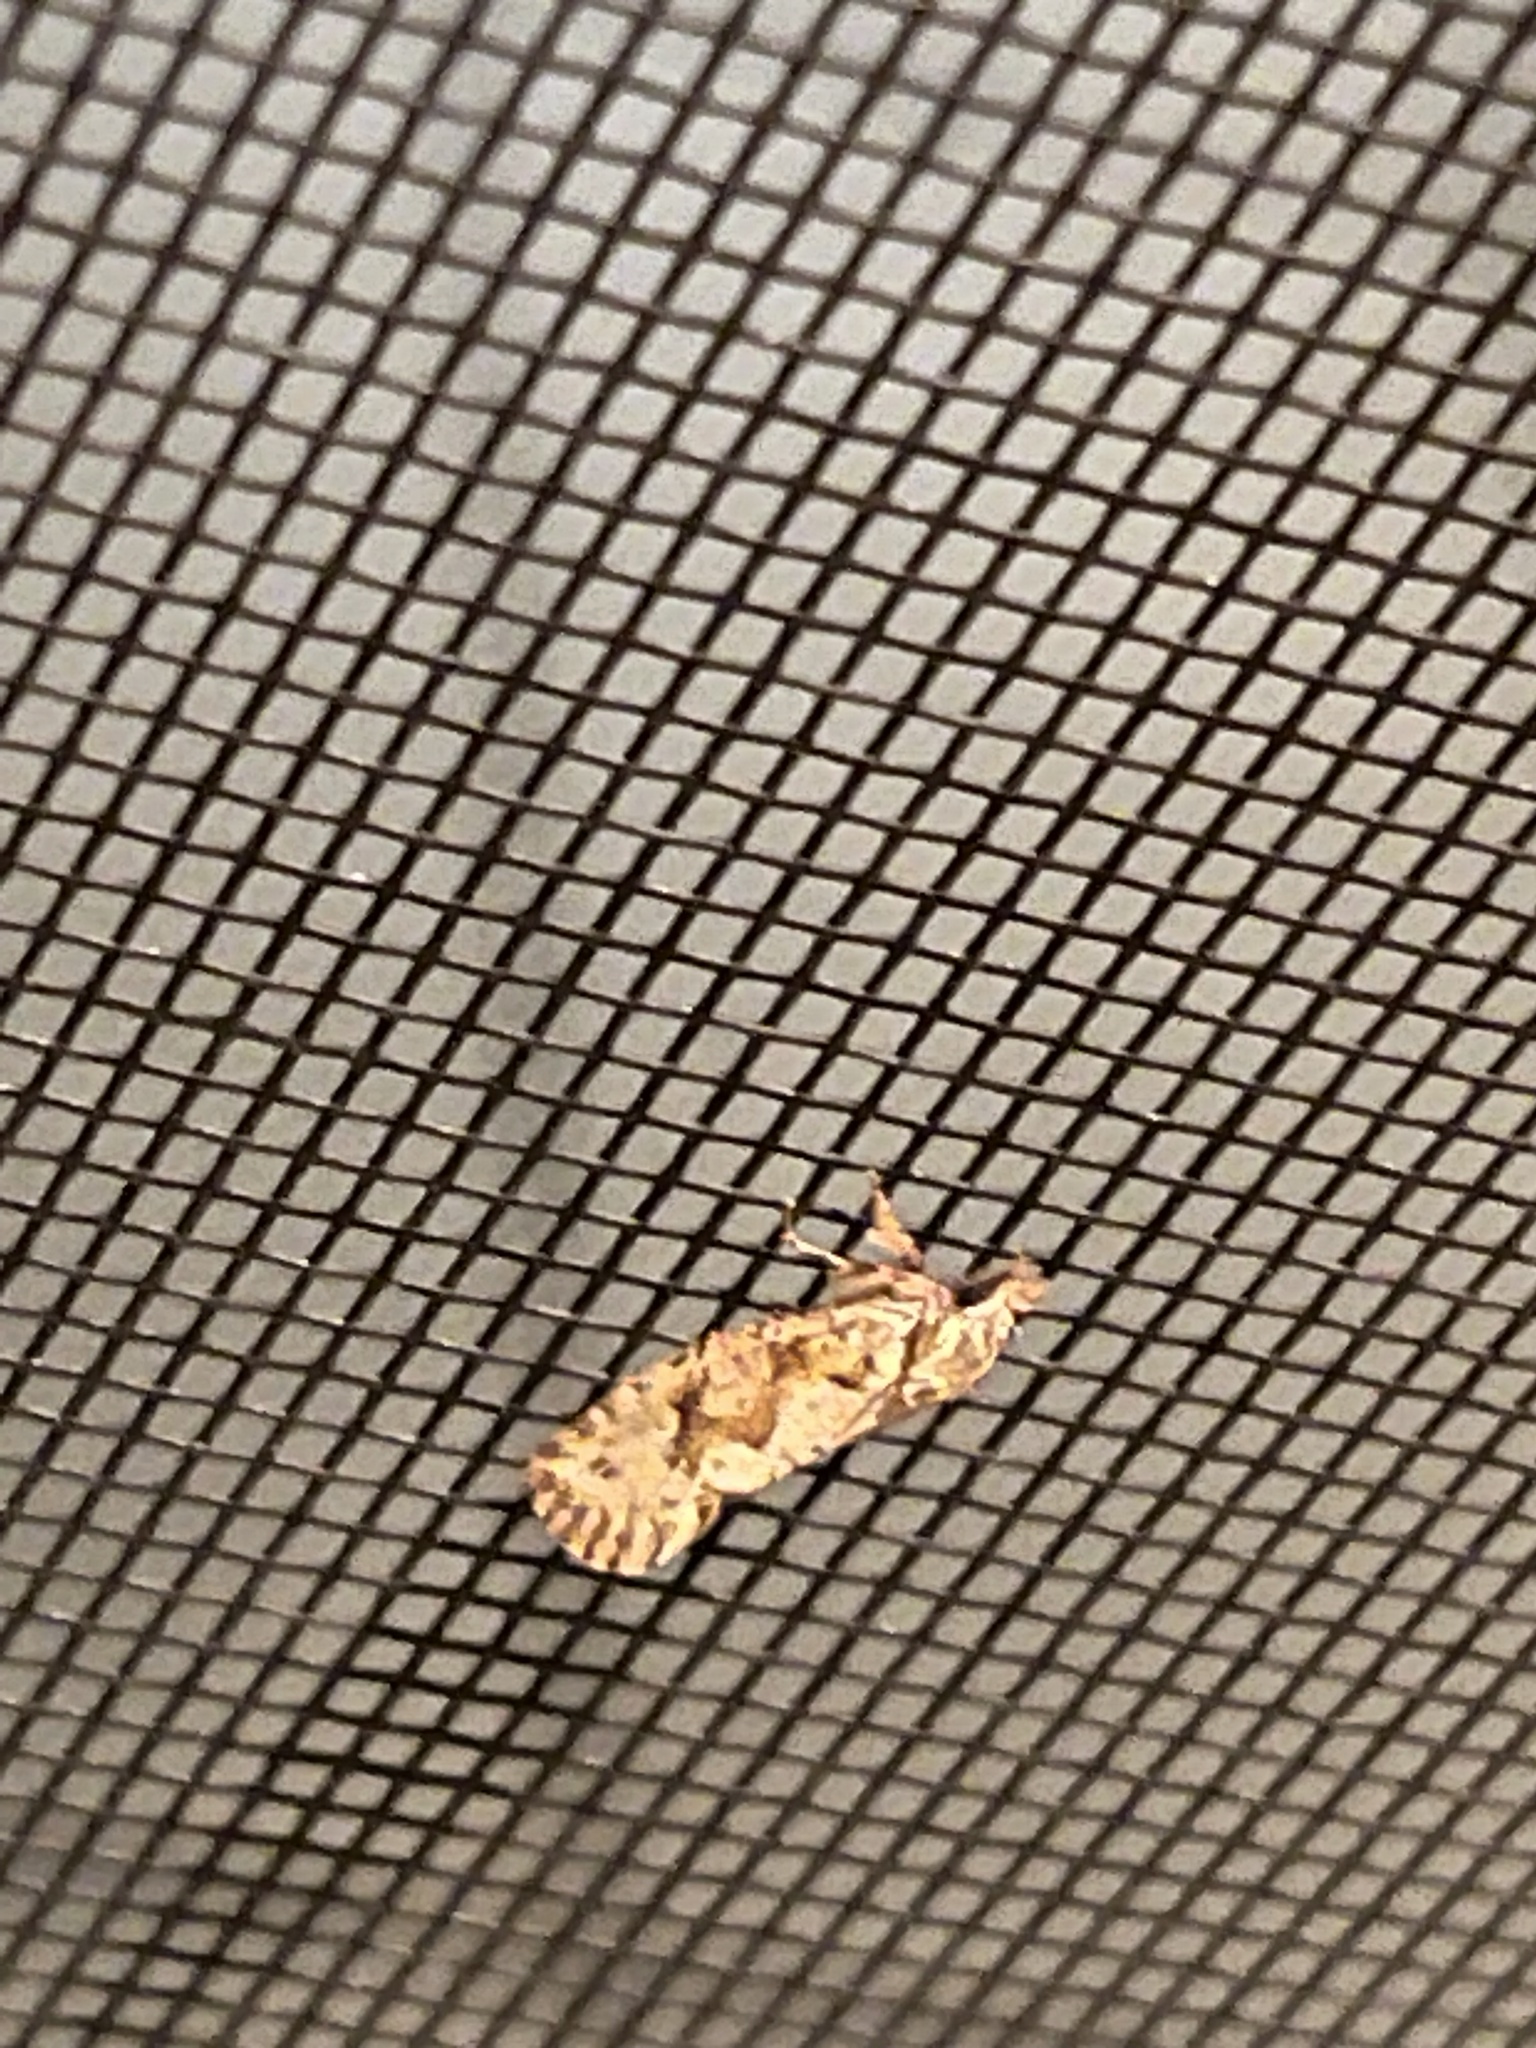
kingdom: Animalia
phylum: Arthropoda
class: Insecta
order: Lepidoptera
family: Tineidae
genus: Acrolophus
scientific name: Acrolophus walsinghami
